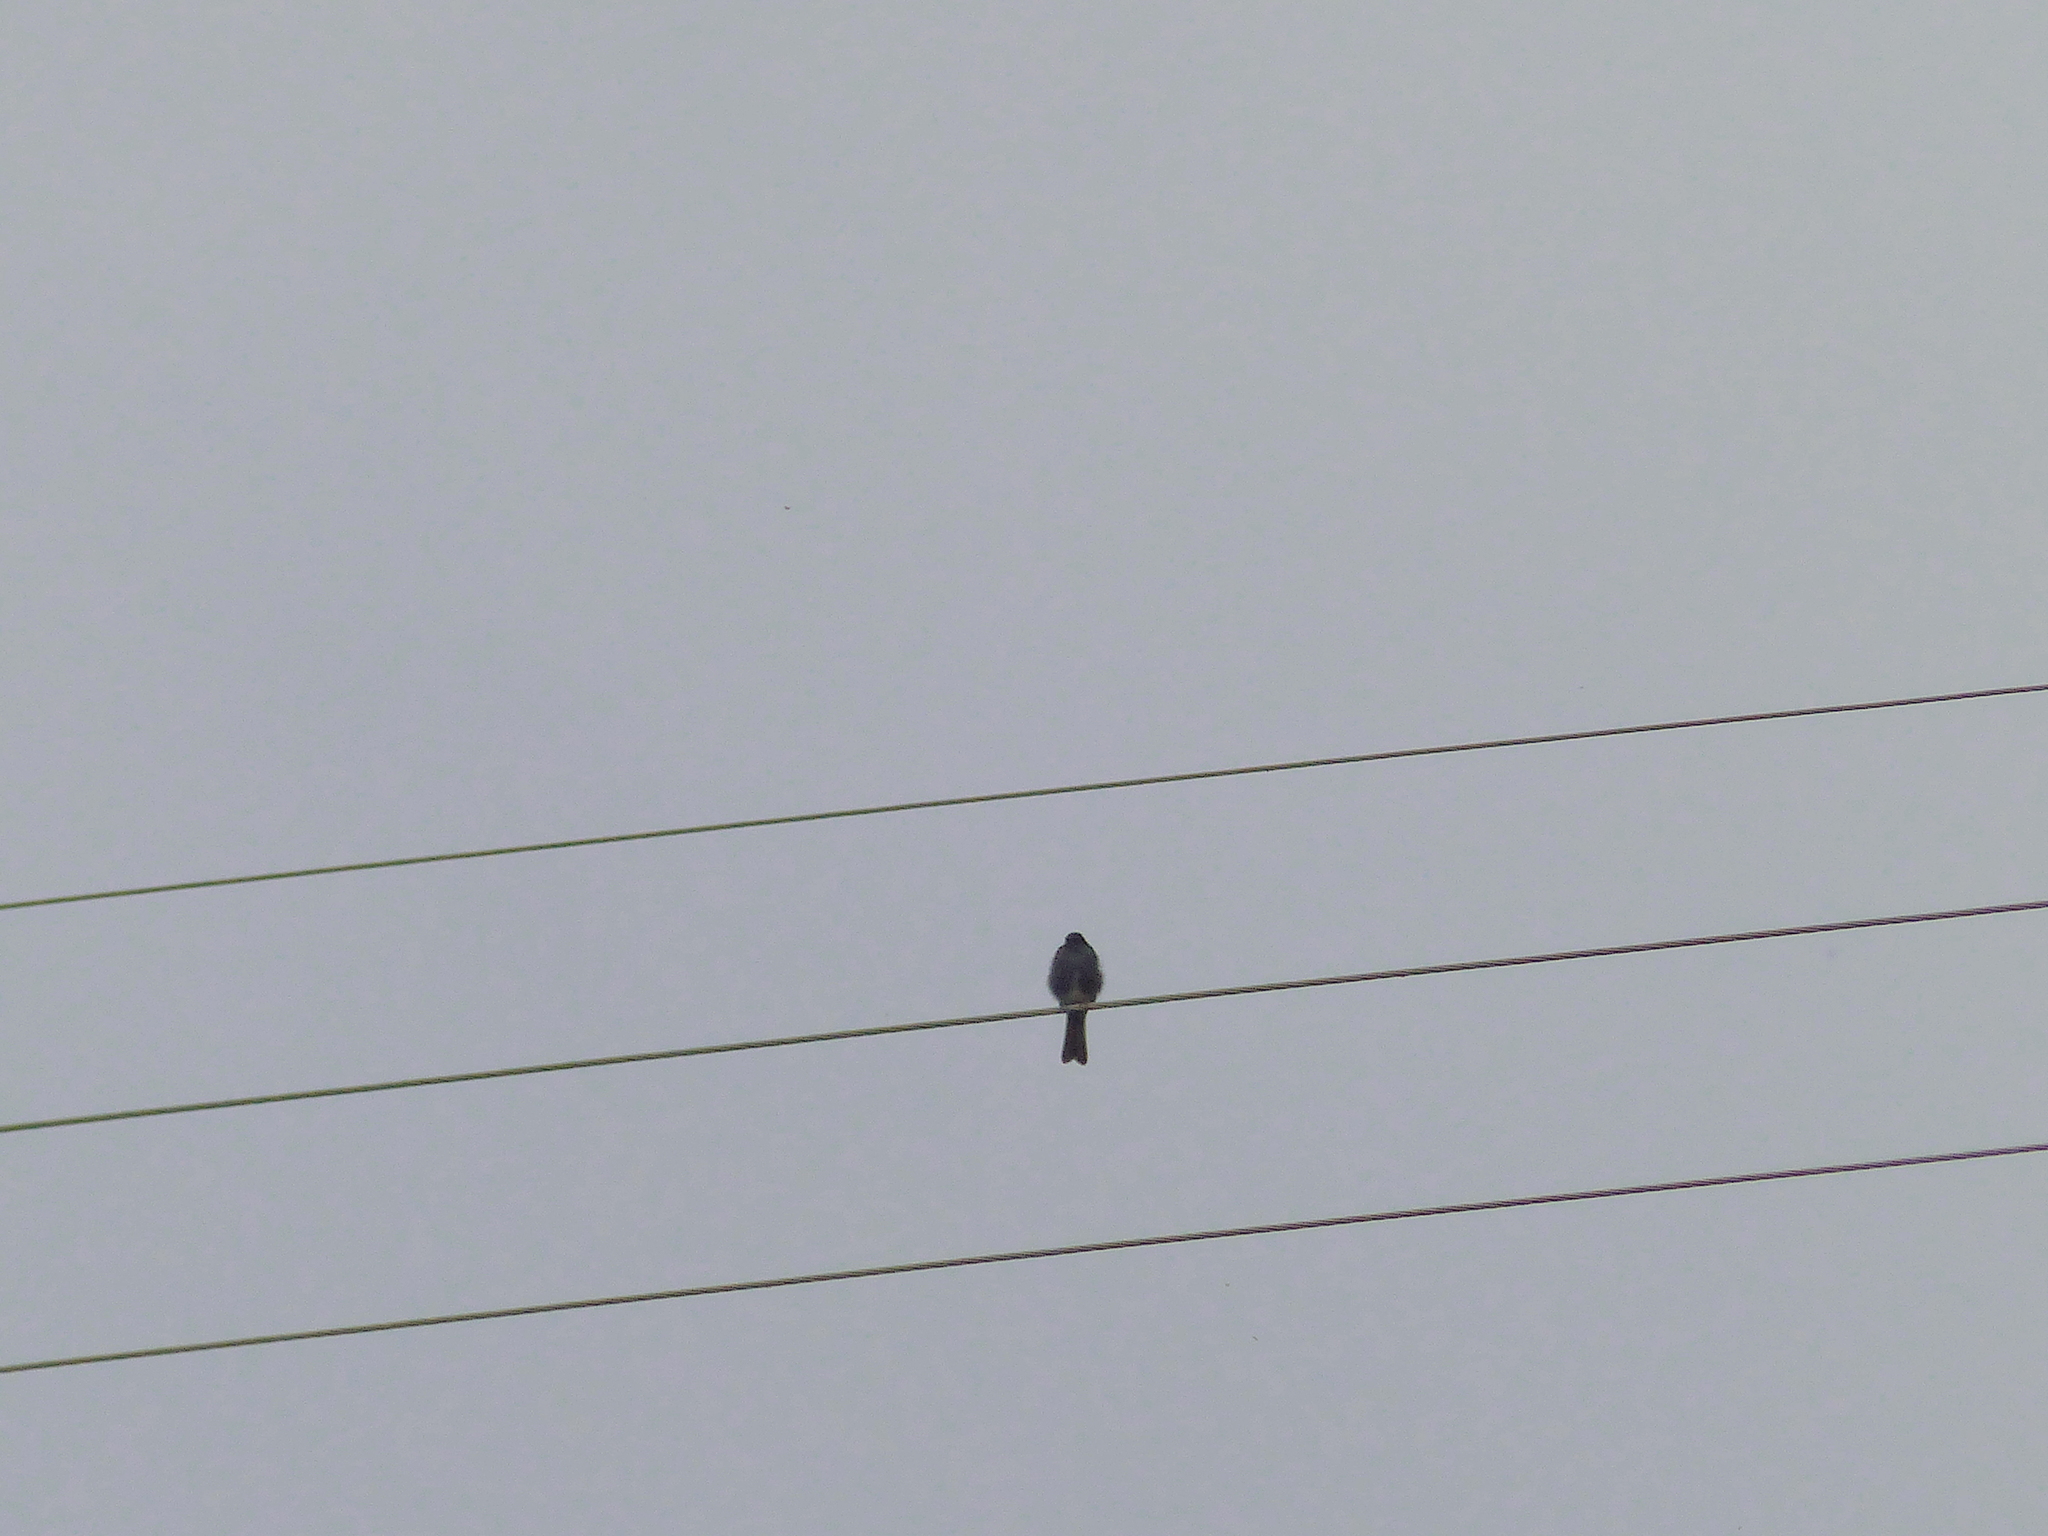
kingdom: Animalia
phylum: Chordata
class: Aves
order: Passeriformes
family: Tyrannidae
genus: Sayornis
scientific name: Sayornis nigricans
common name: Black phoebe
